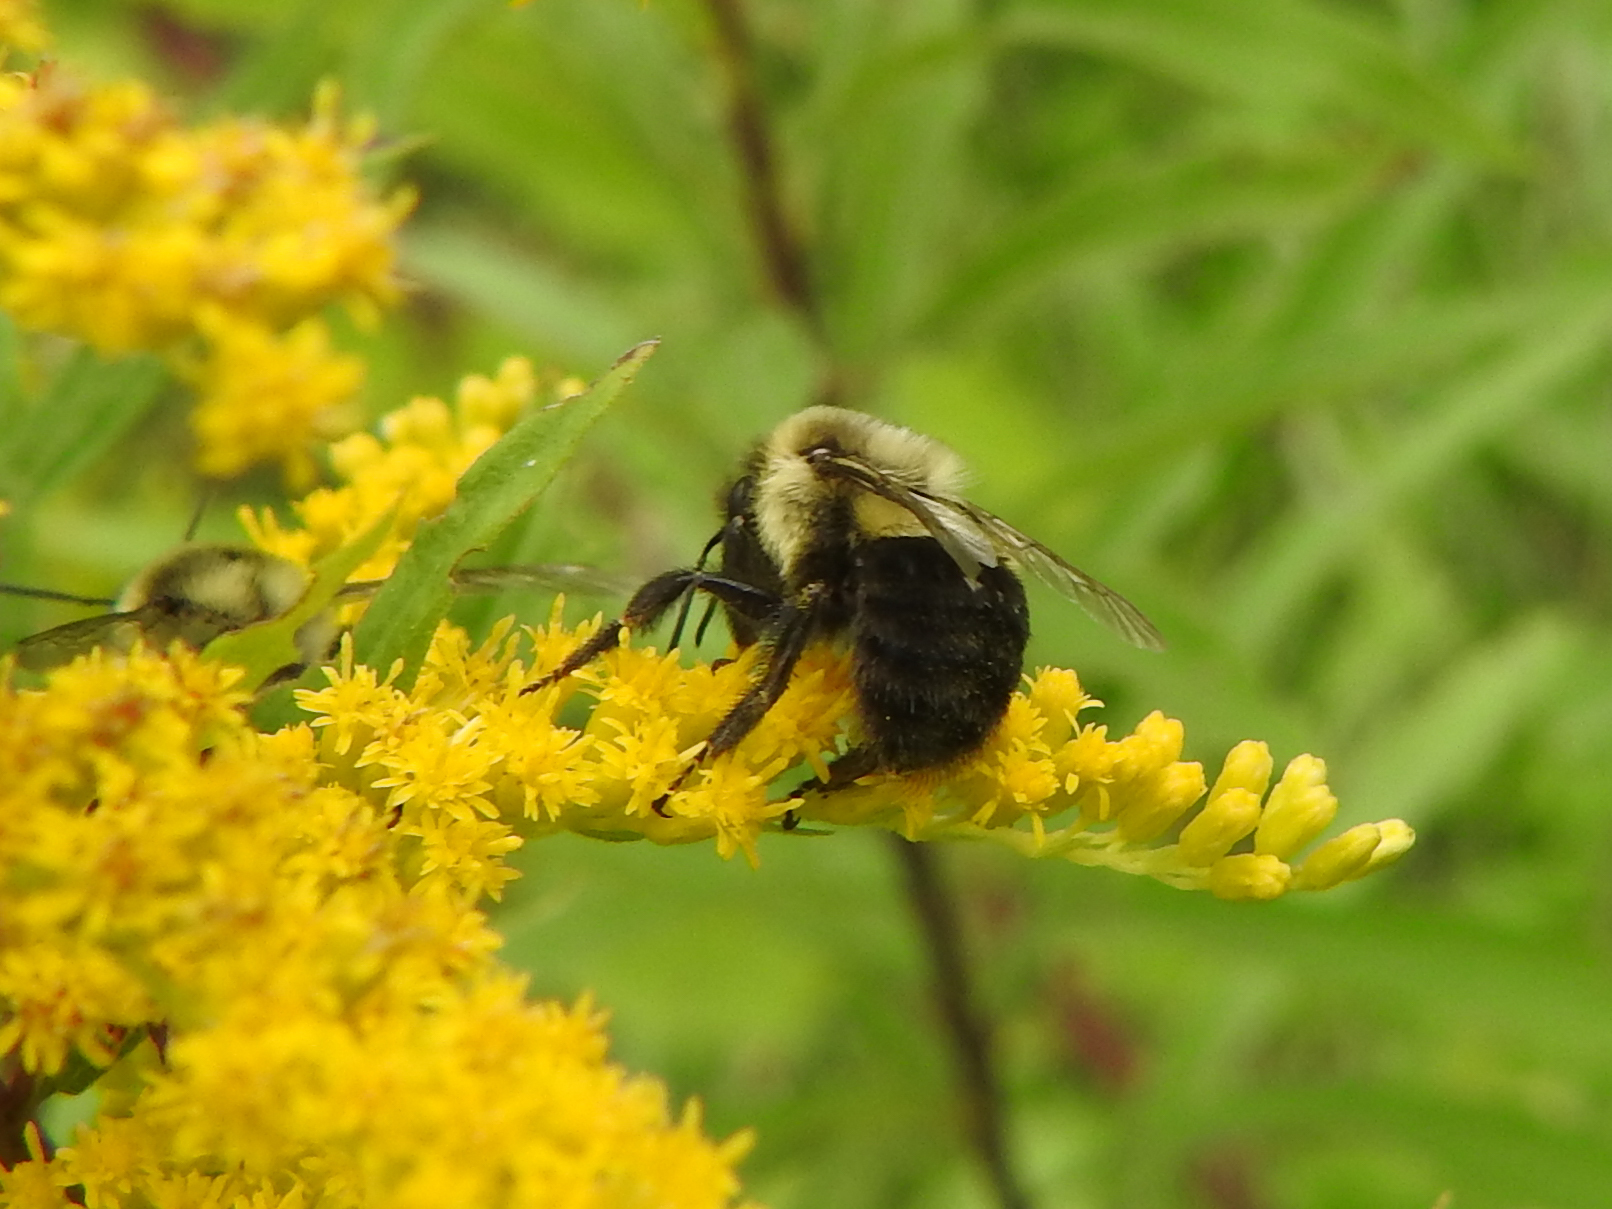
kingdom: Animalia
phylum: Arthropoda
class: Insecta
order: Hymenoptera
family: Apidae
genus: Bombus
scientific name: Bombus impatiens
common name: Common eastern bumble bee
